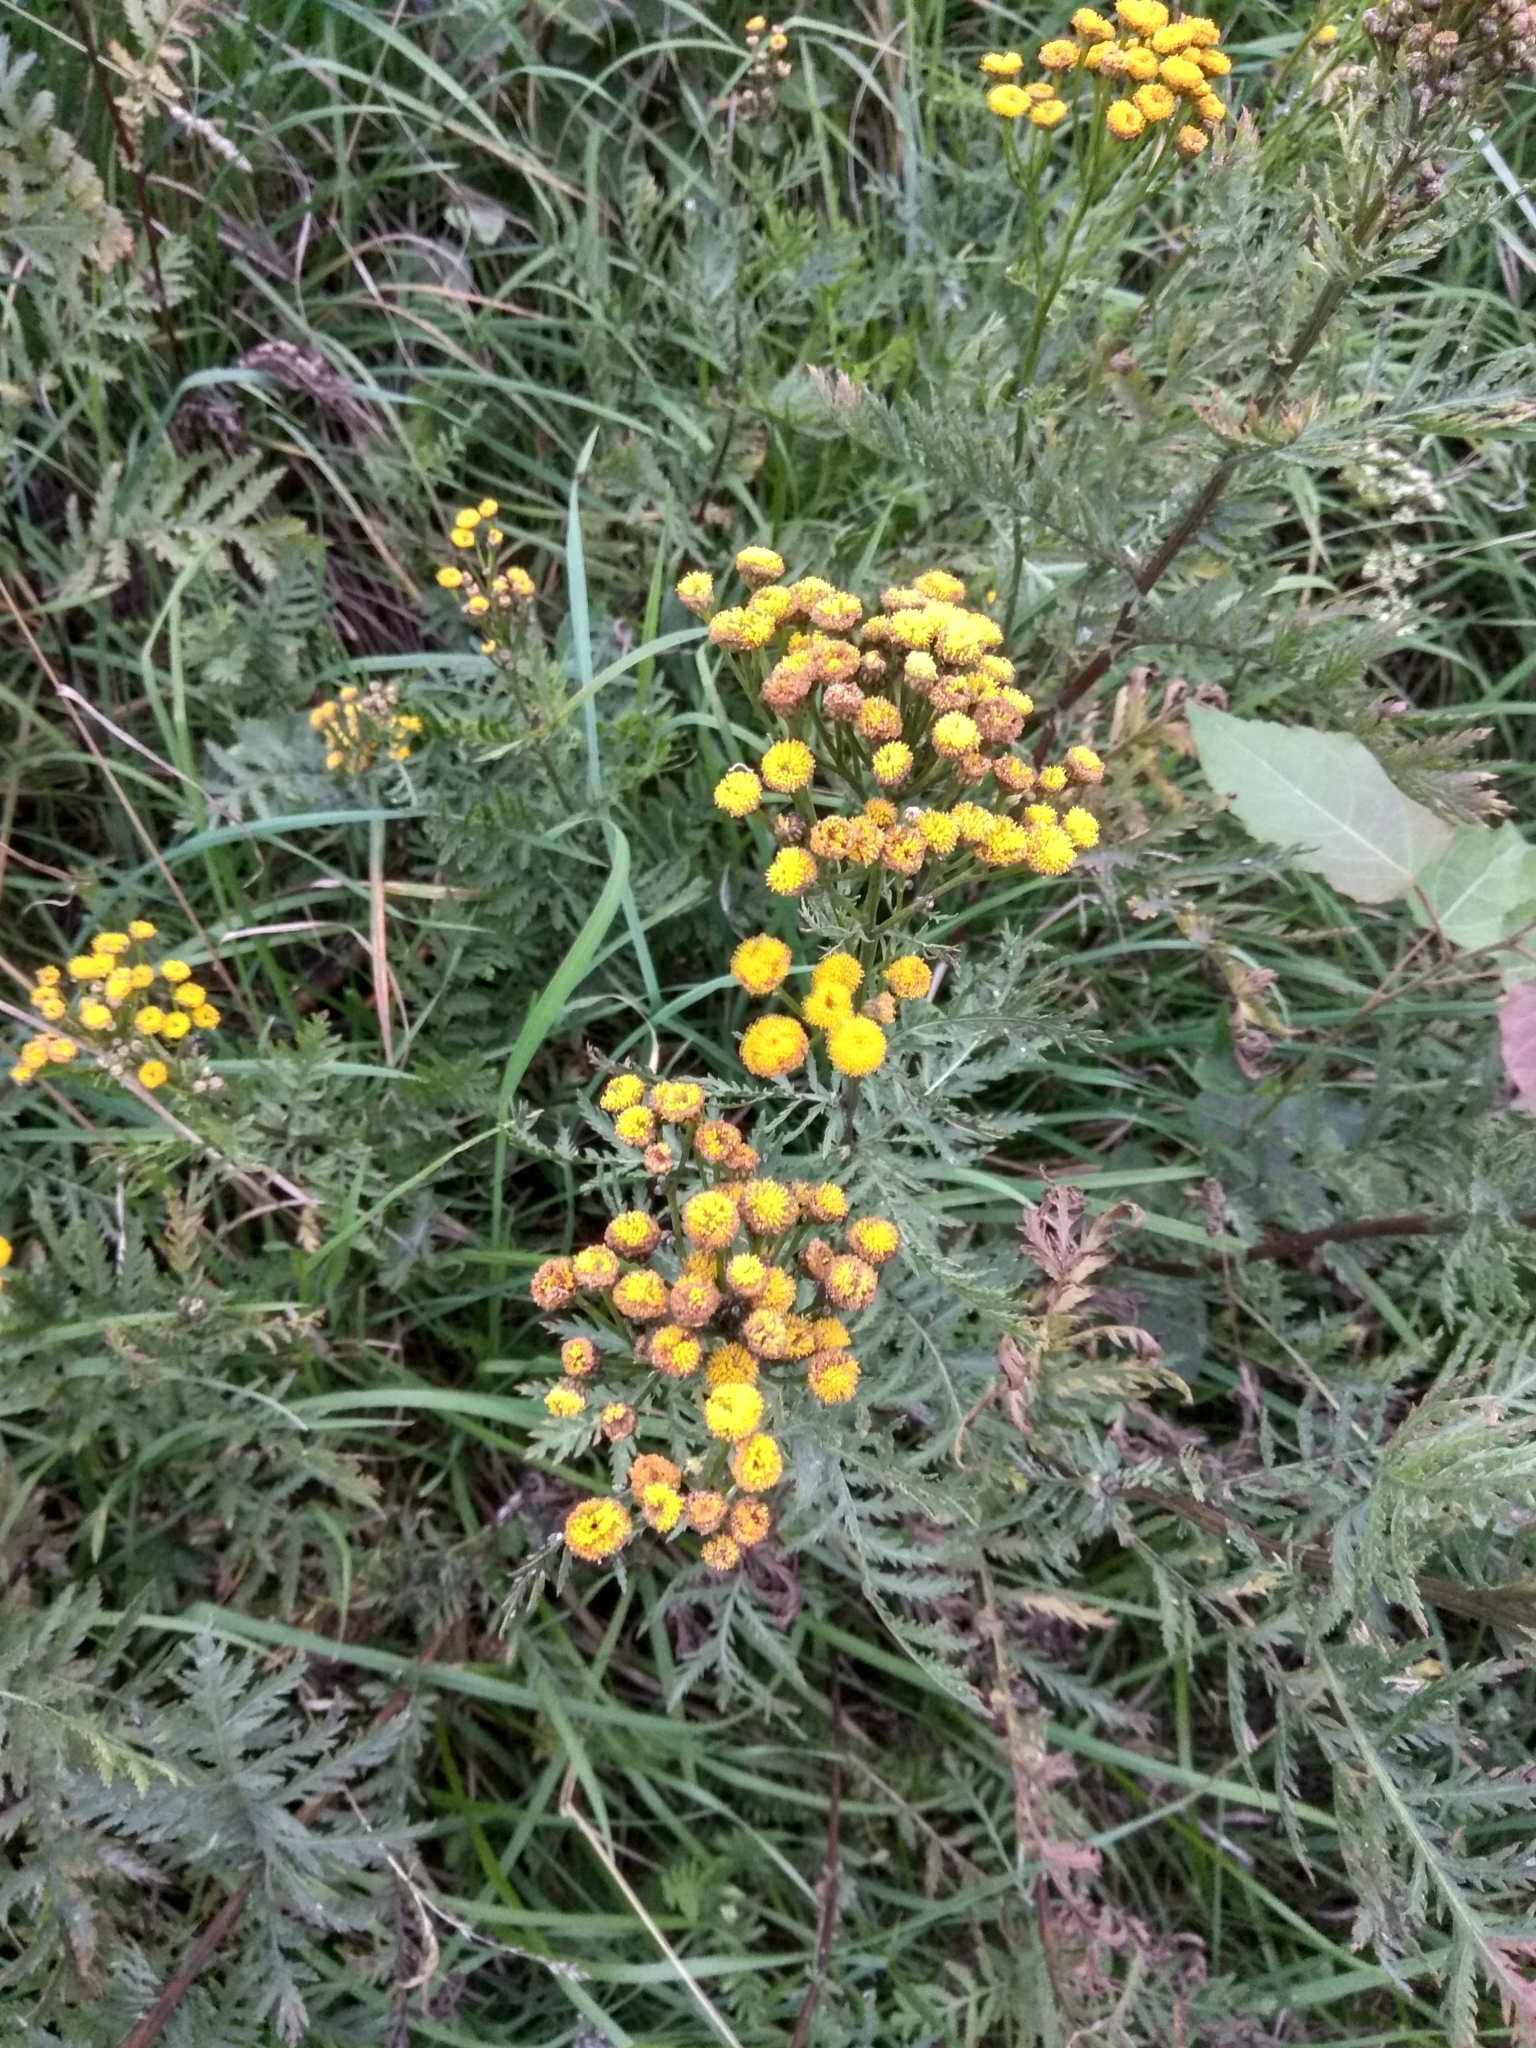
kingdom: Plantae
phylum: Tracheophyta
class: Magnoliopsida
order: Asterales
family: Asteraceae
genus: Tanacetum
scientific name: Tanacetum vulgare
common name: Common tansy
